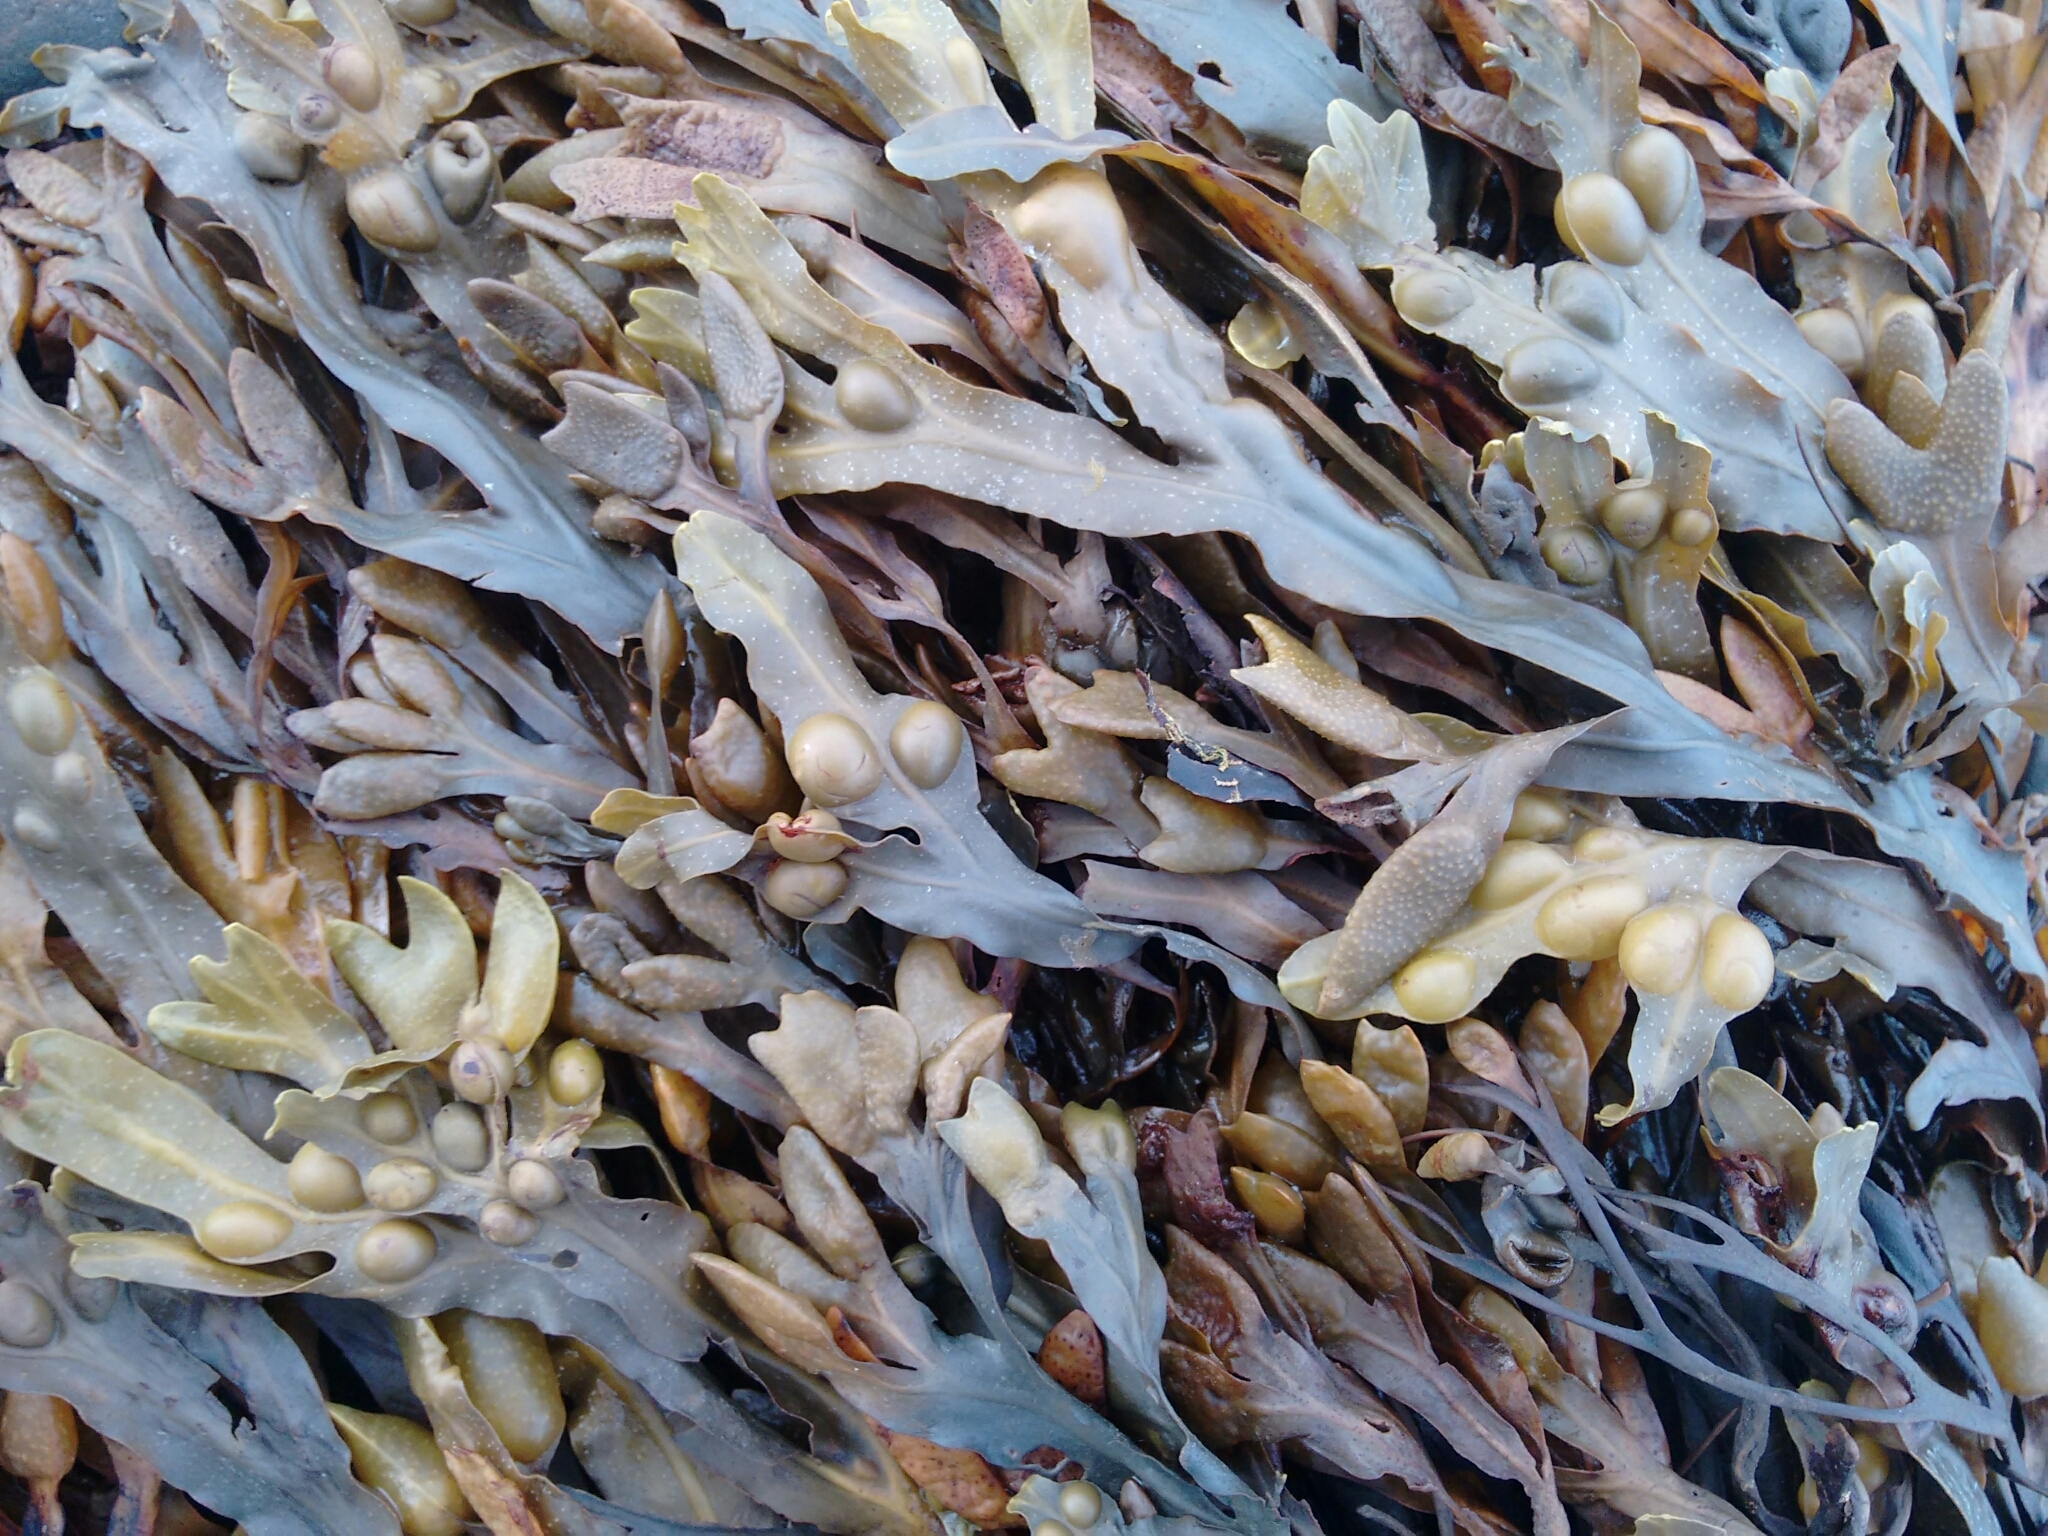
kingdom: Chromista
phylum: Ochrophyta
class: Phaeophyceae
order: Fucales
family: Fucaceae
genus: Fucus
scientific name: Fucus vesiculosus
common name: Bladder wrack
